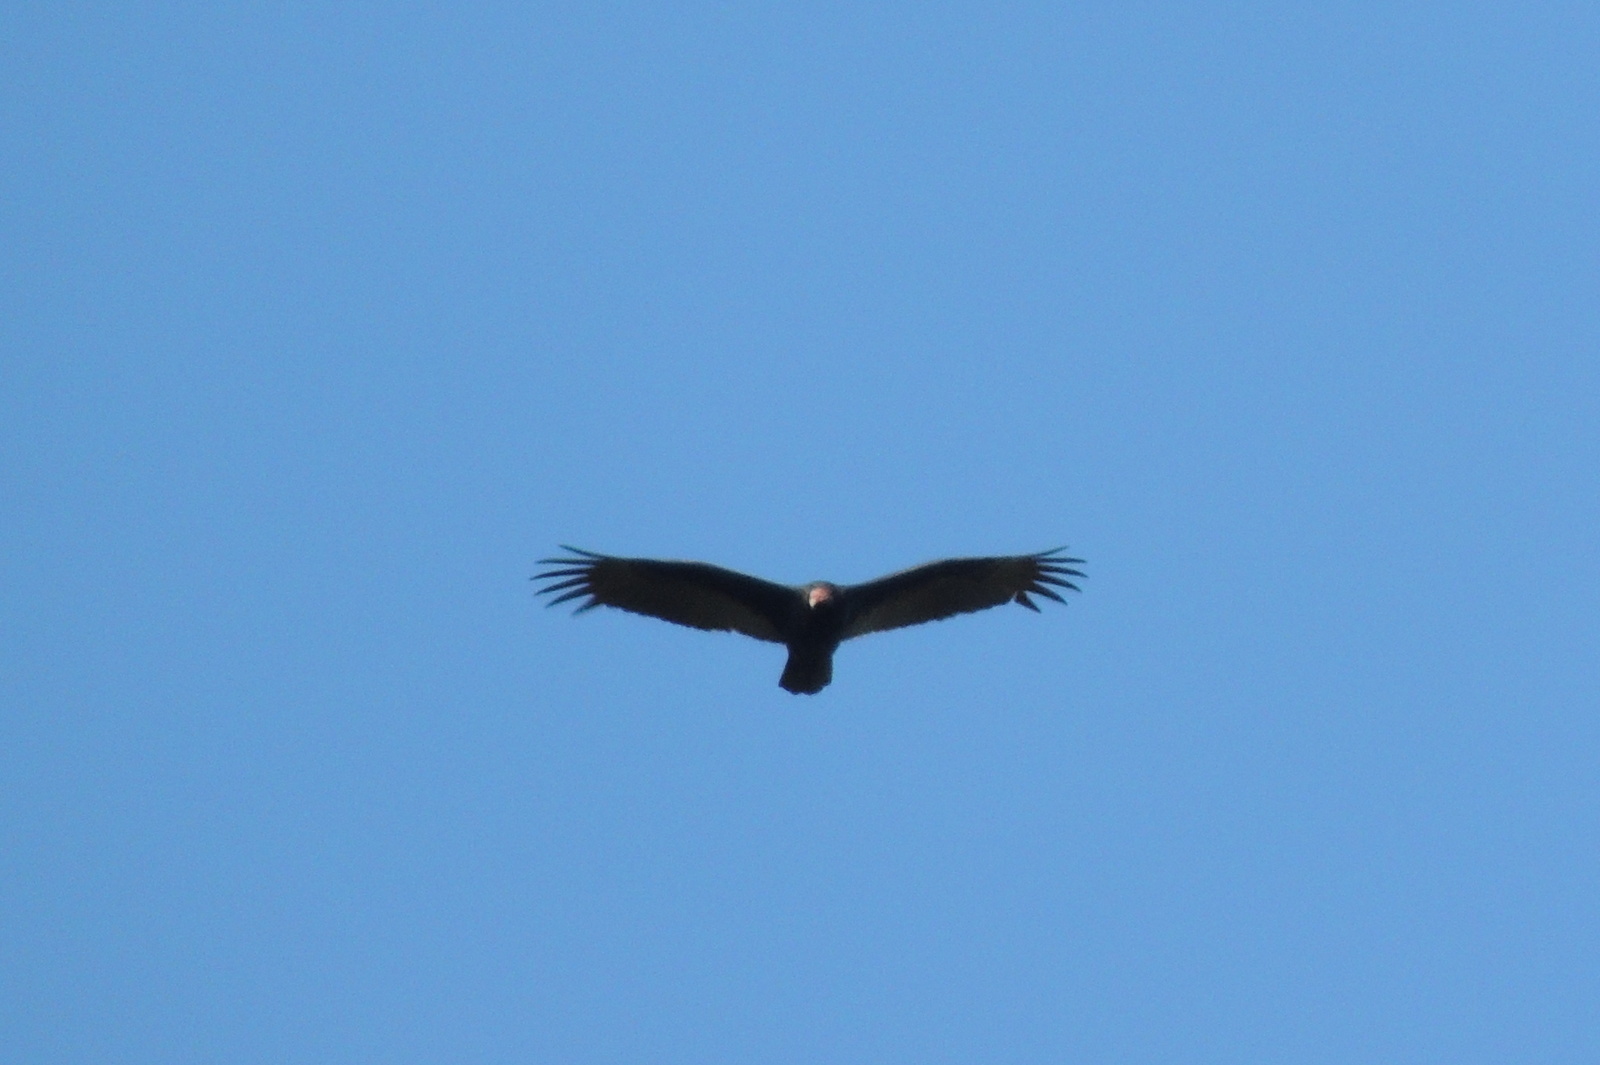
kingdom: Animalia
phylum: Chordata
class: Aves
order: Accipitriformes
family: Cathartidae
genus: Cathartes
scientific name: Cathartes aura
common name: Turkey vulture
